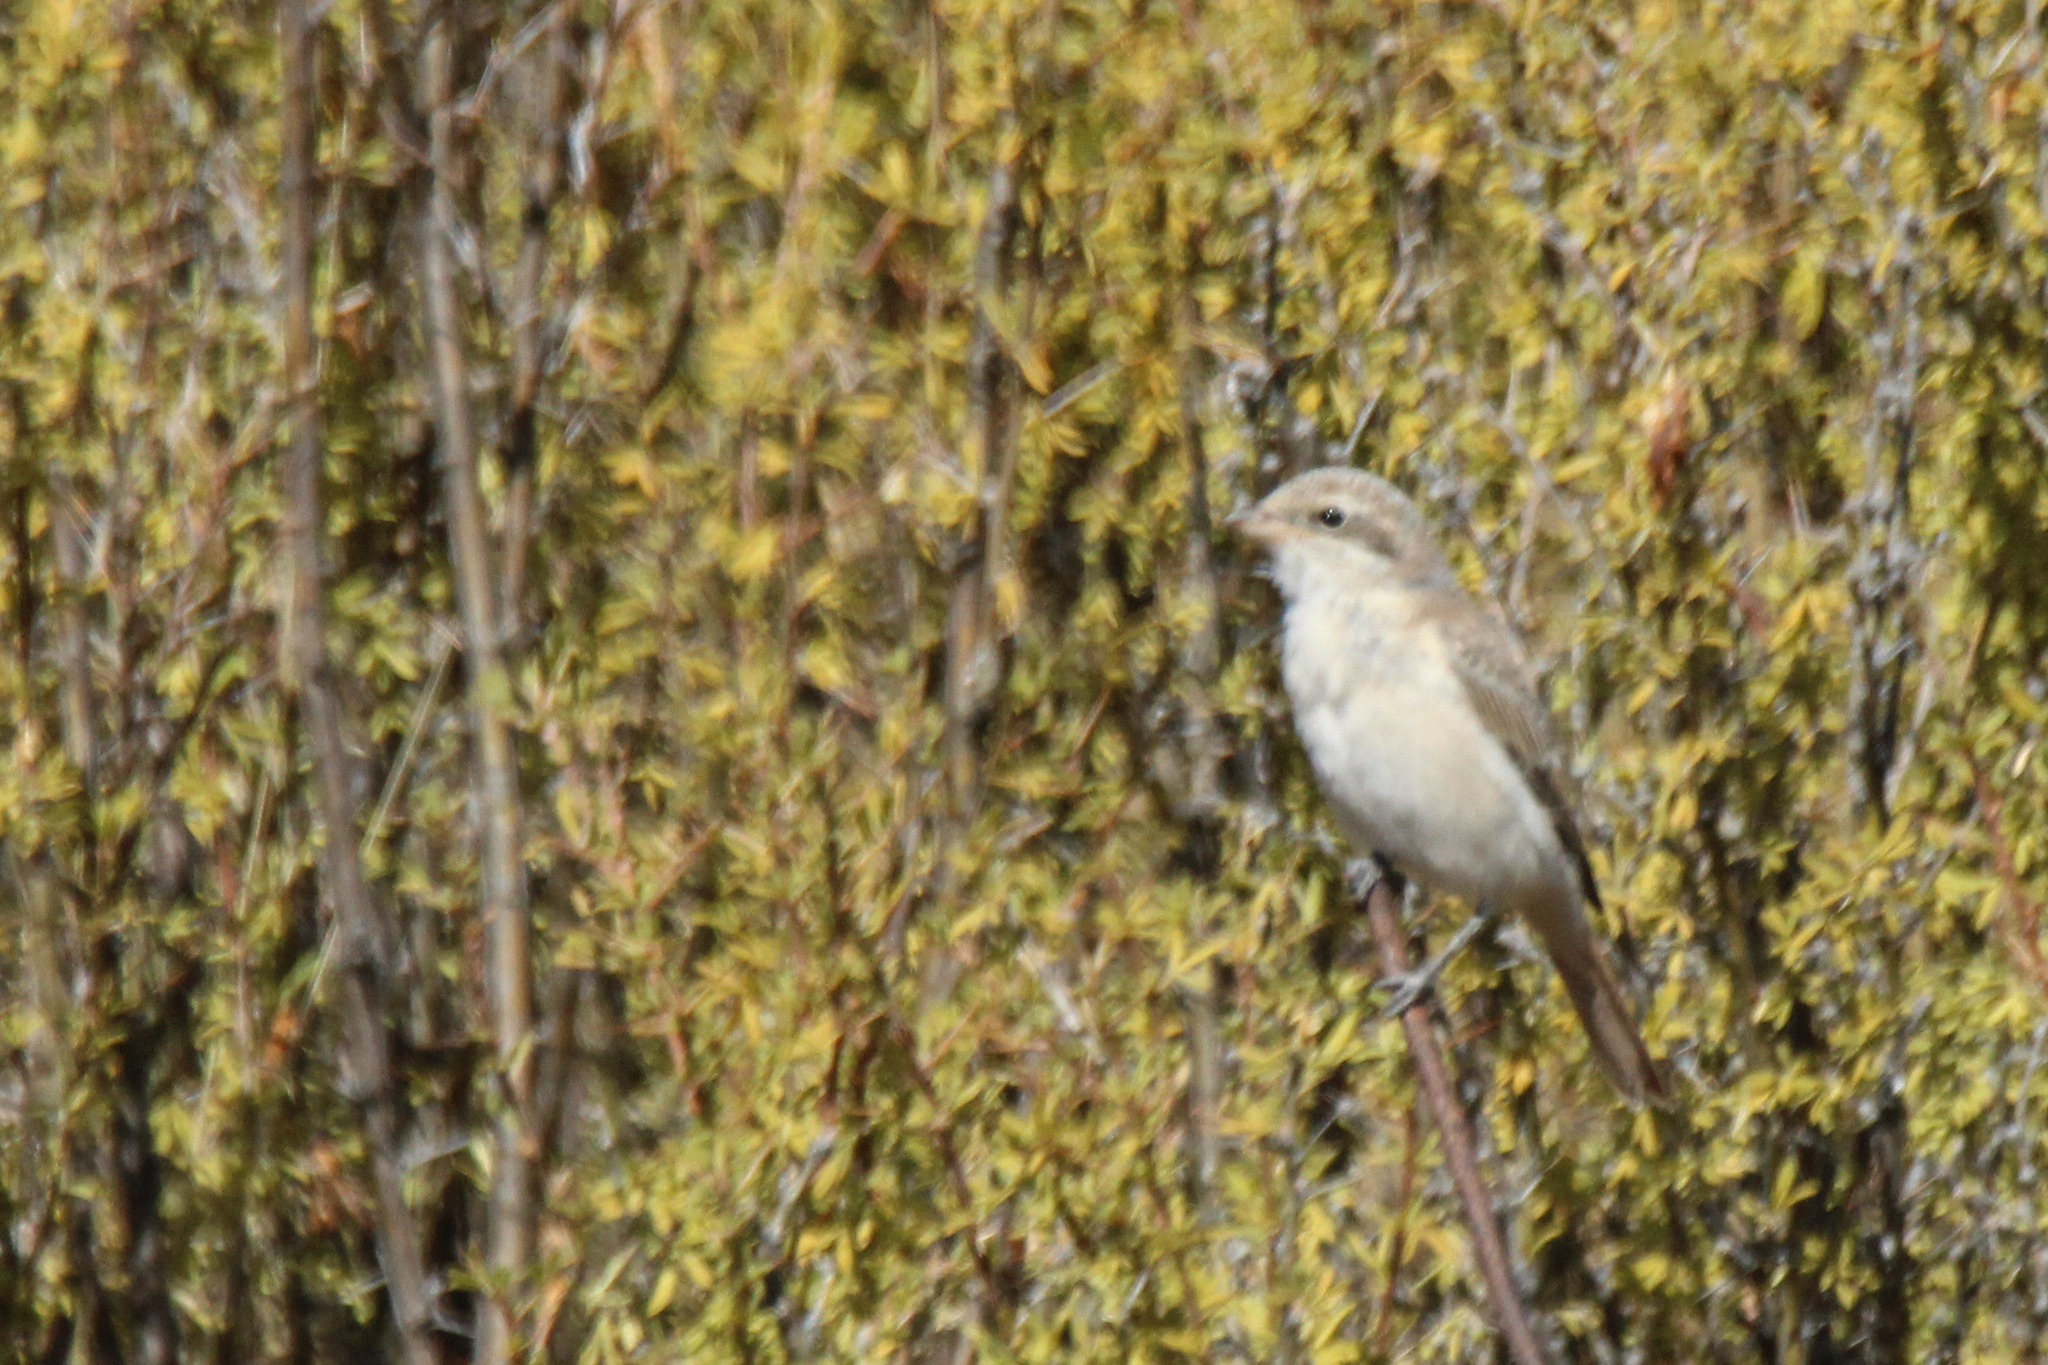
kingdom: Animalia
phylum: Chordata
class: Aves
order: Passeriformes
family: Laniidae
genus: Lanius
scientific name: Lanius isabellinus
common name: Isabelline shrike
